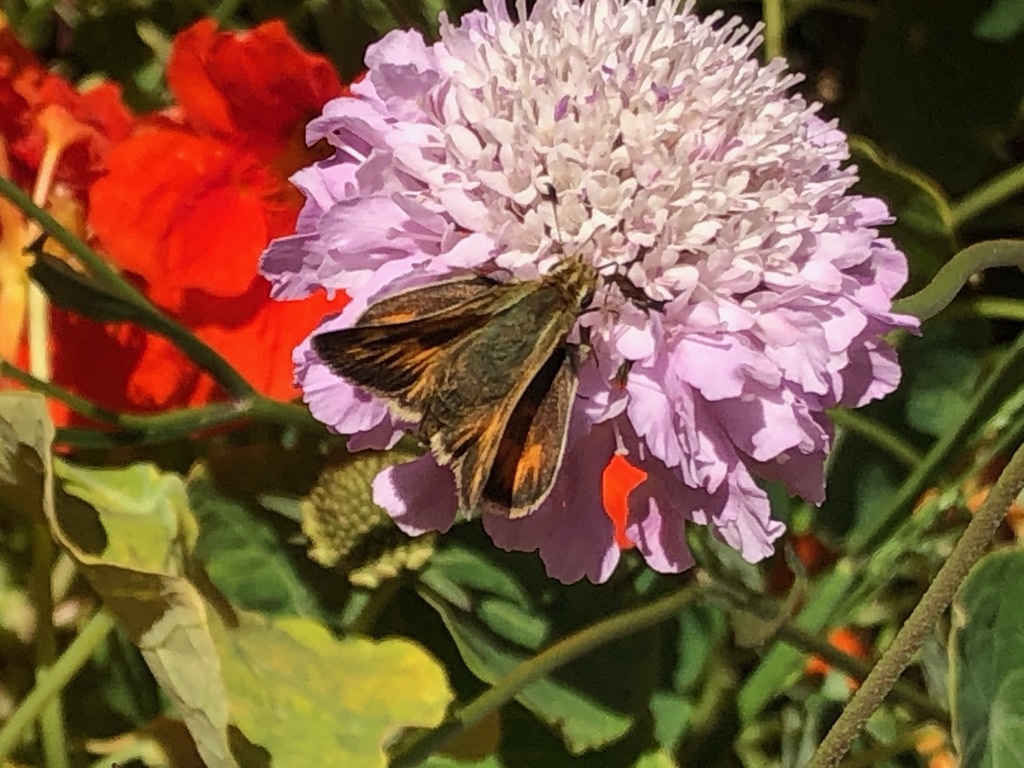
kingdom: Animalia
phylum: Arthropoda
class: Insecta
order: Lepidoptera
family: Hesperiidae
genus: Lon
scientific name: Lon melane
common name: Umber skipper
